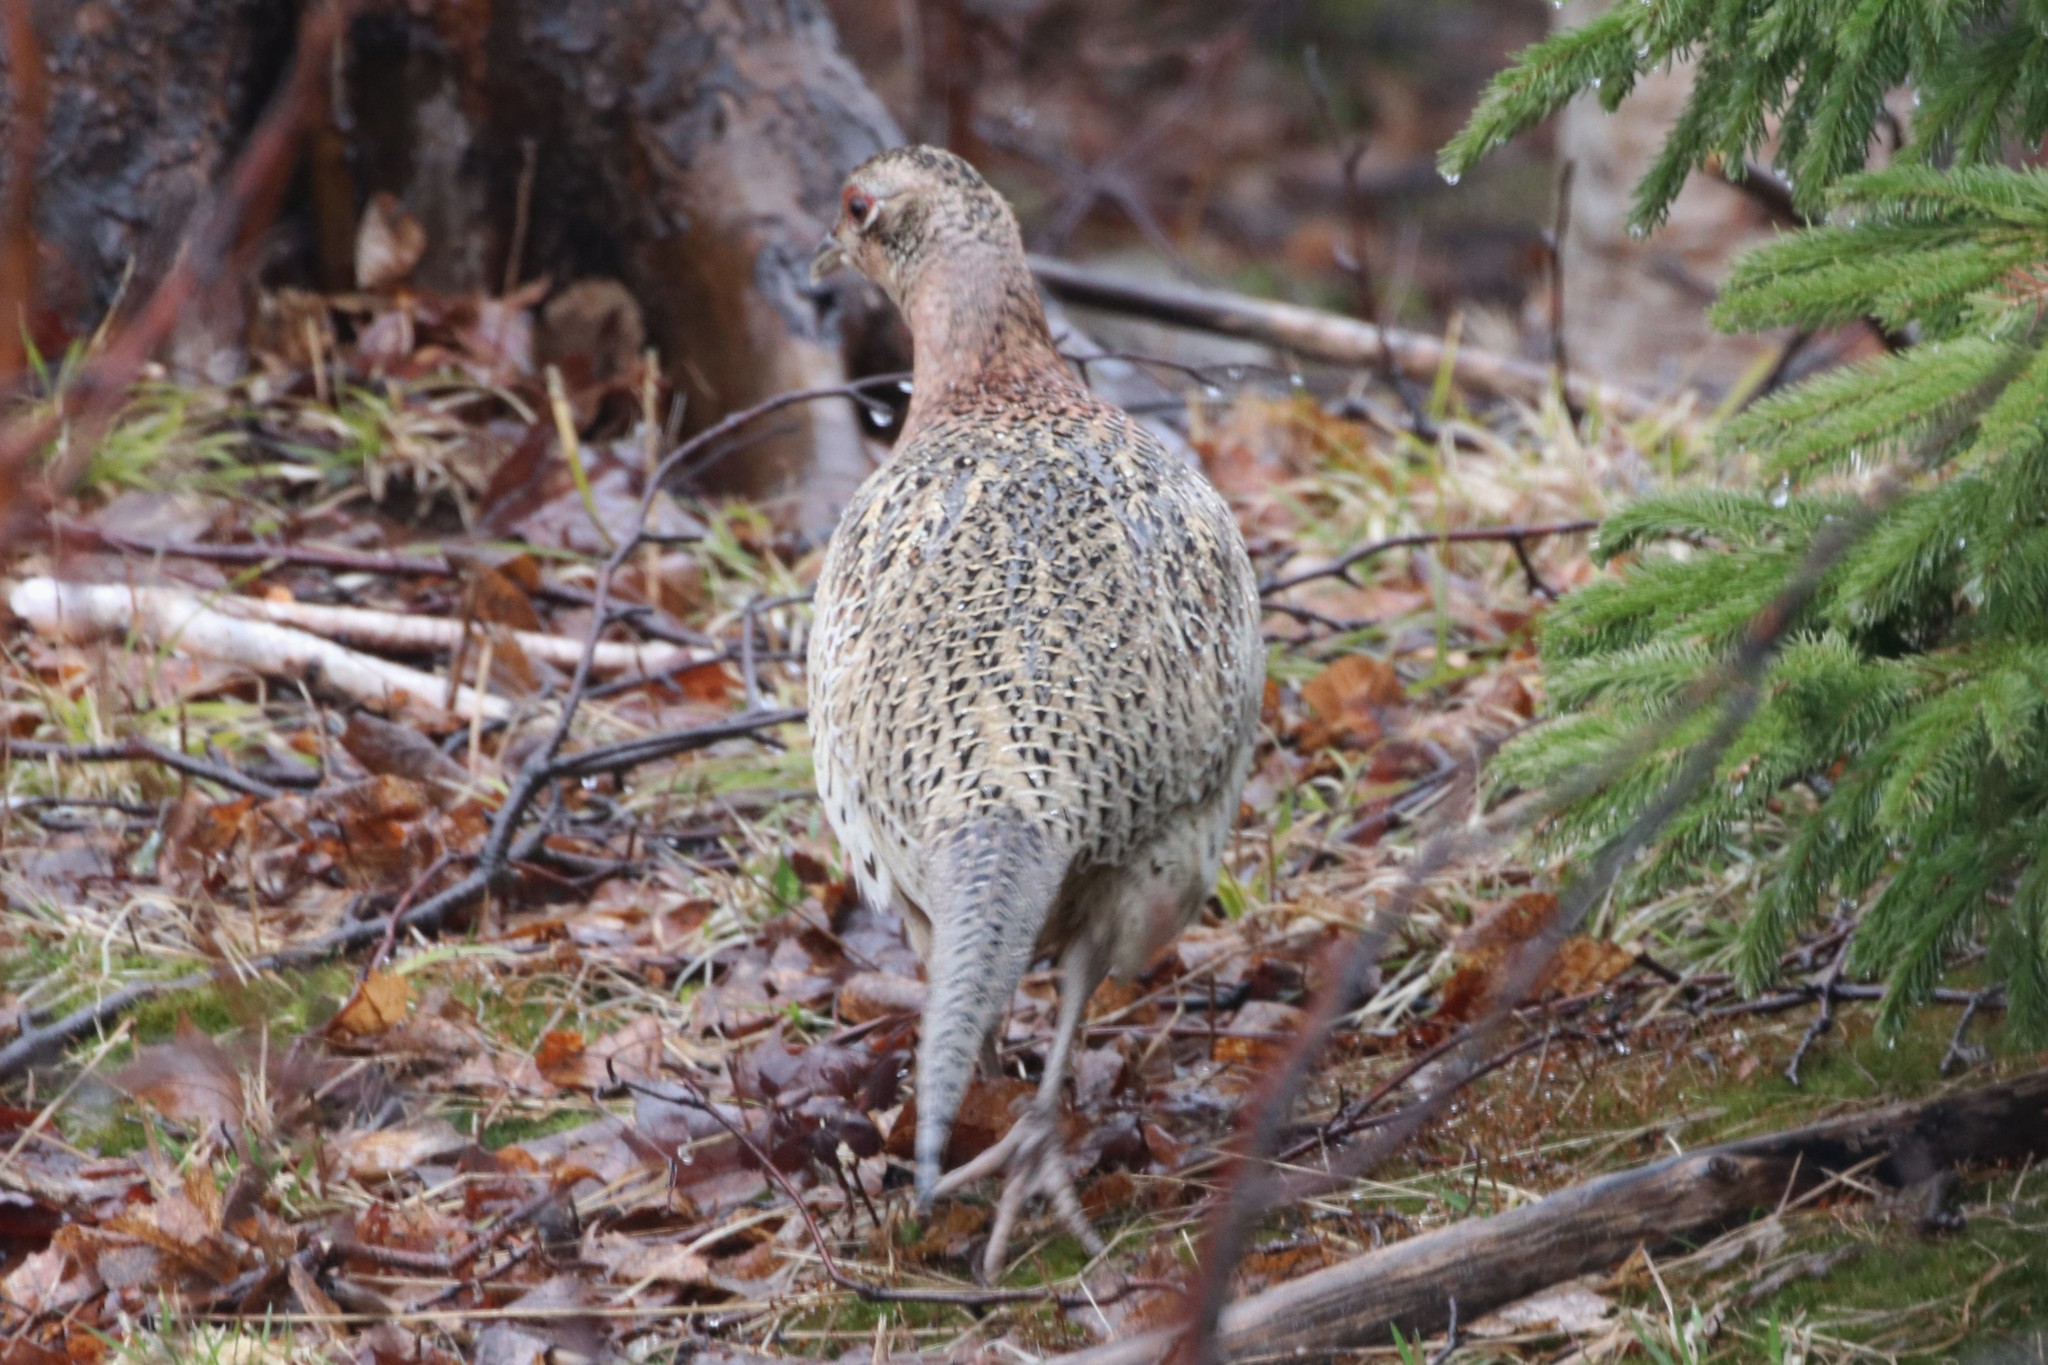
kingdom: Animalia
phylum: Chordata
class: Aves
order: Galliformes
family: Phasianidae
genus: Phasianus
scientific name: Phasianus colchicus
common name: Common pheasant
